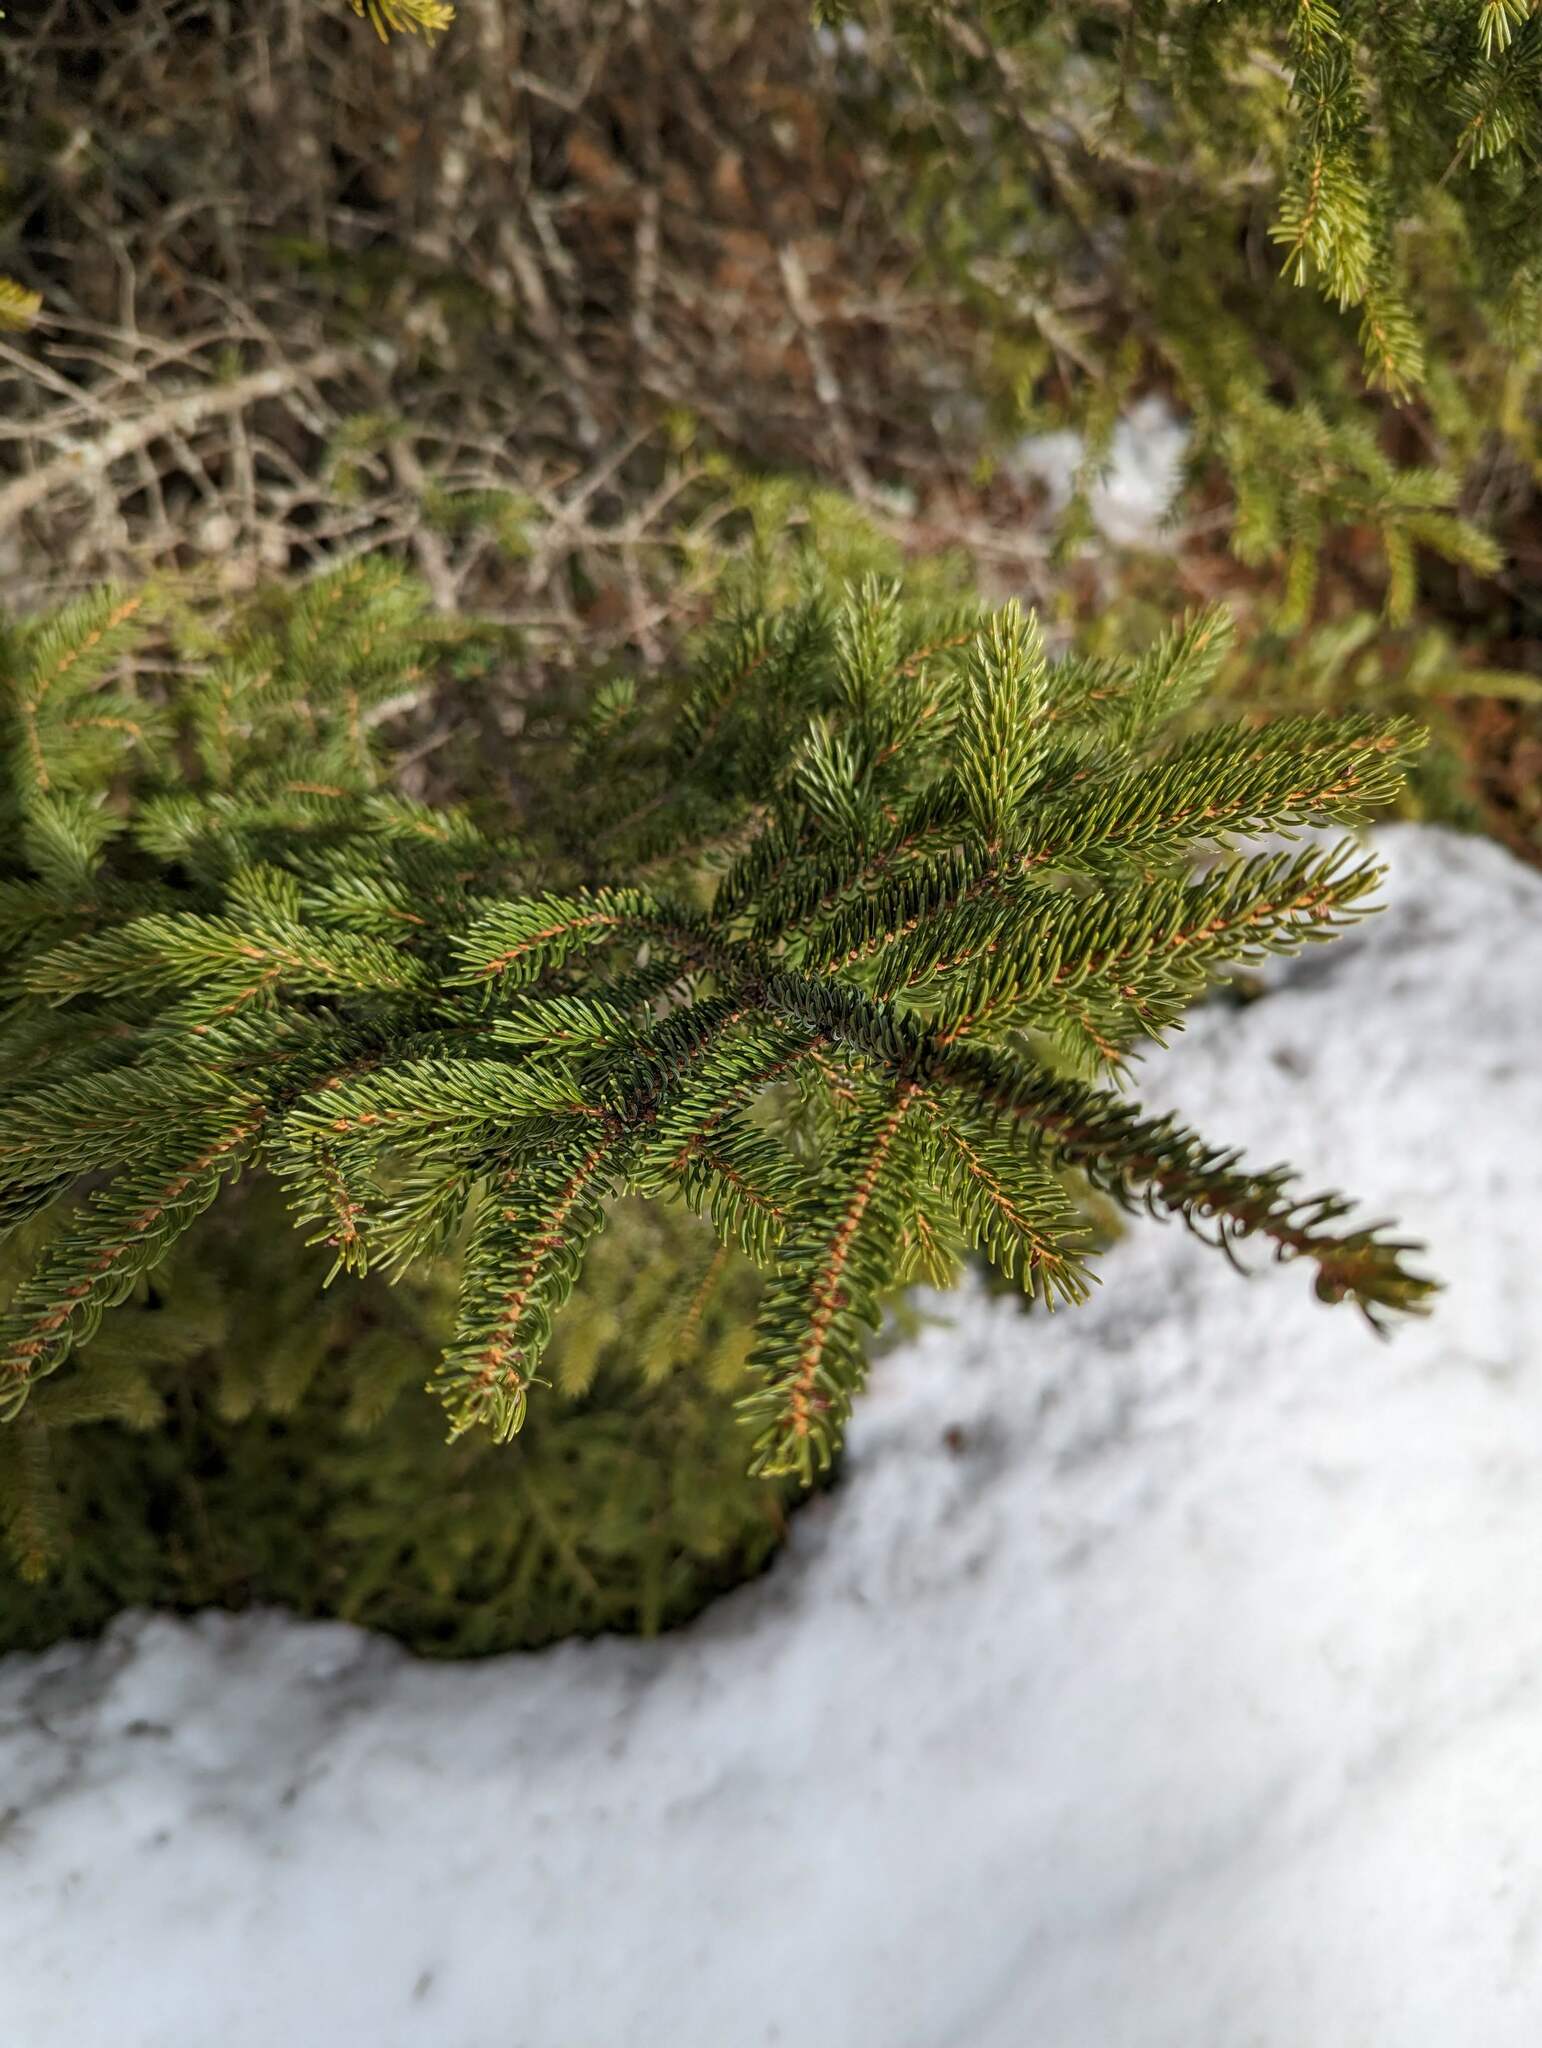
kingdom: Plantae
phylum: Tracheophyta
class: Pinopsida
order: Pinales
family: Pinaceae
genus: Picea
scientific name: Picea rubens
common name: Red spruce
